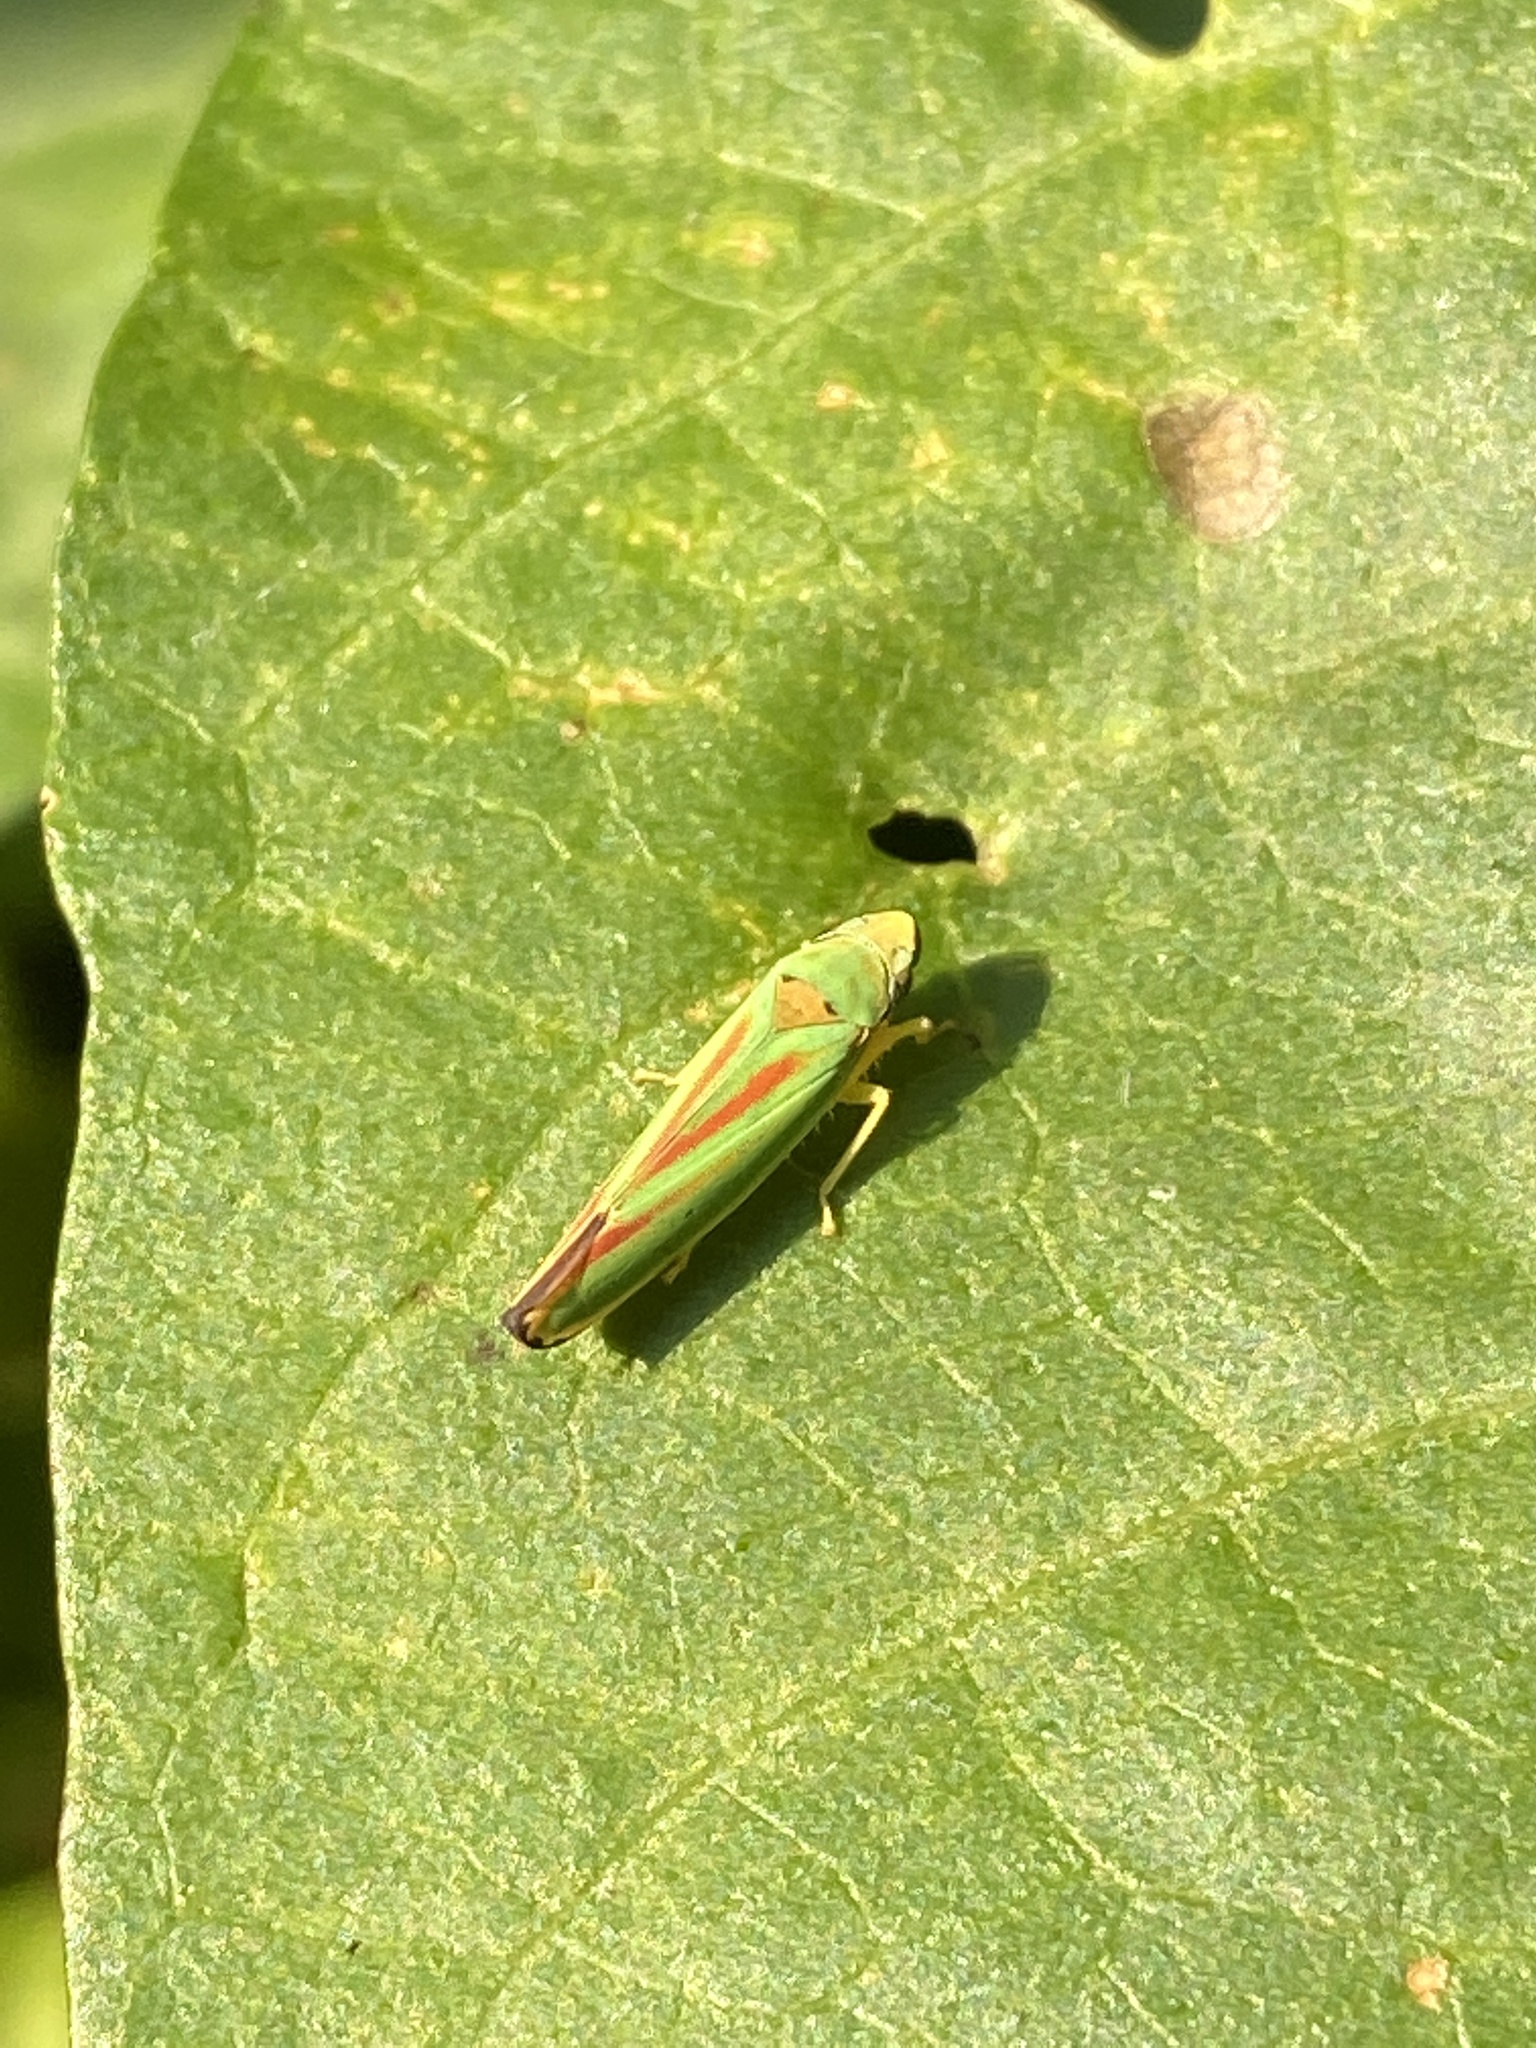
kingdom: Animalia
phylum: Arthropoda
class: Insecta
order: Hemiptera
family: Cicadellidae
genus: Graphocephala
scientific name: Graphocephala fennahi
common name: Rhododendron leafhopper
